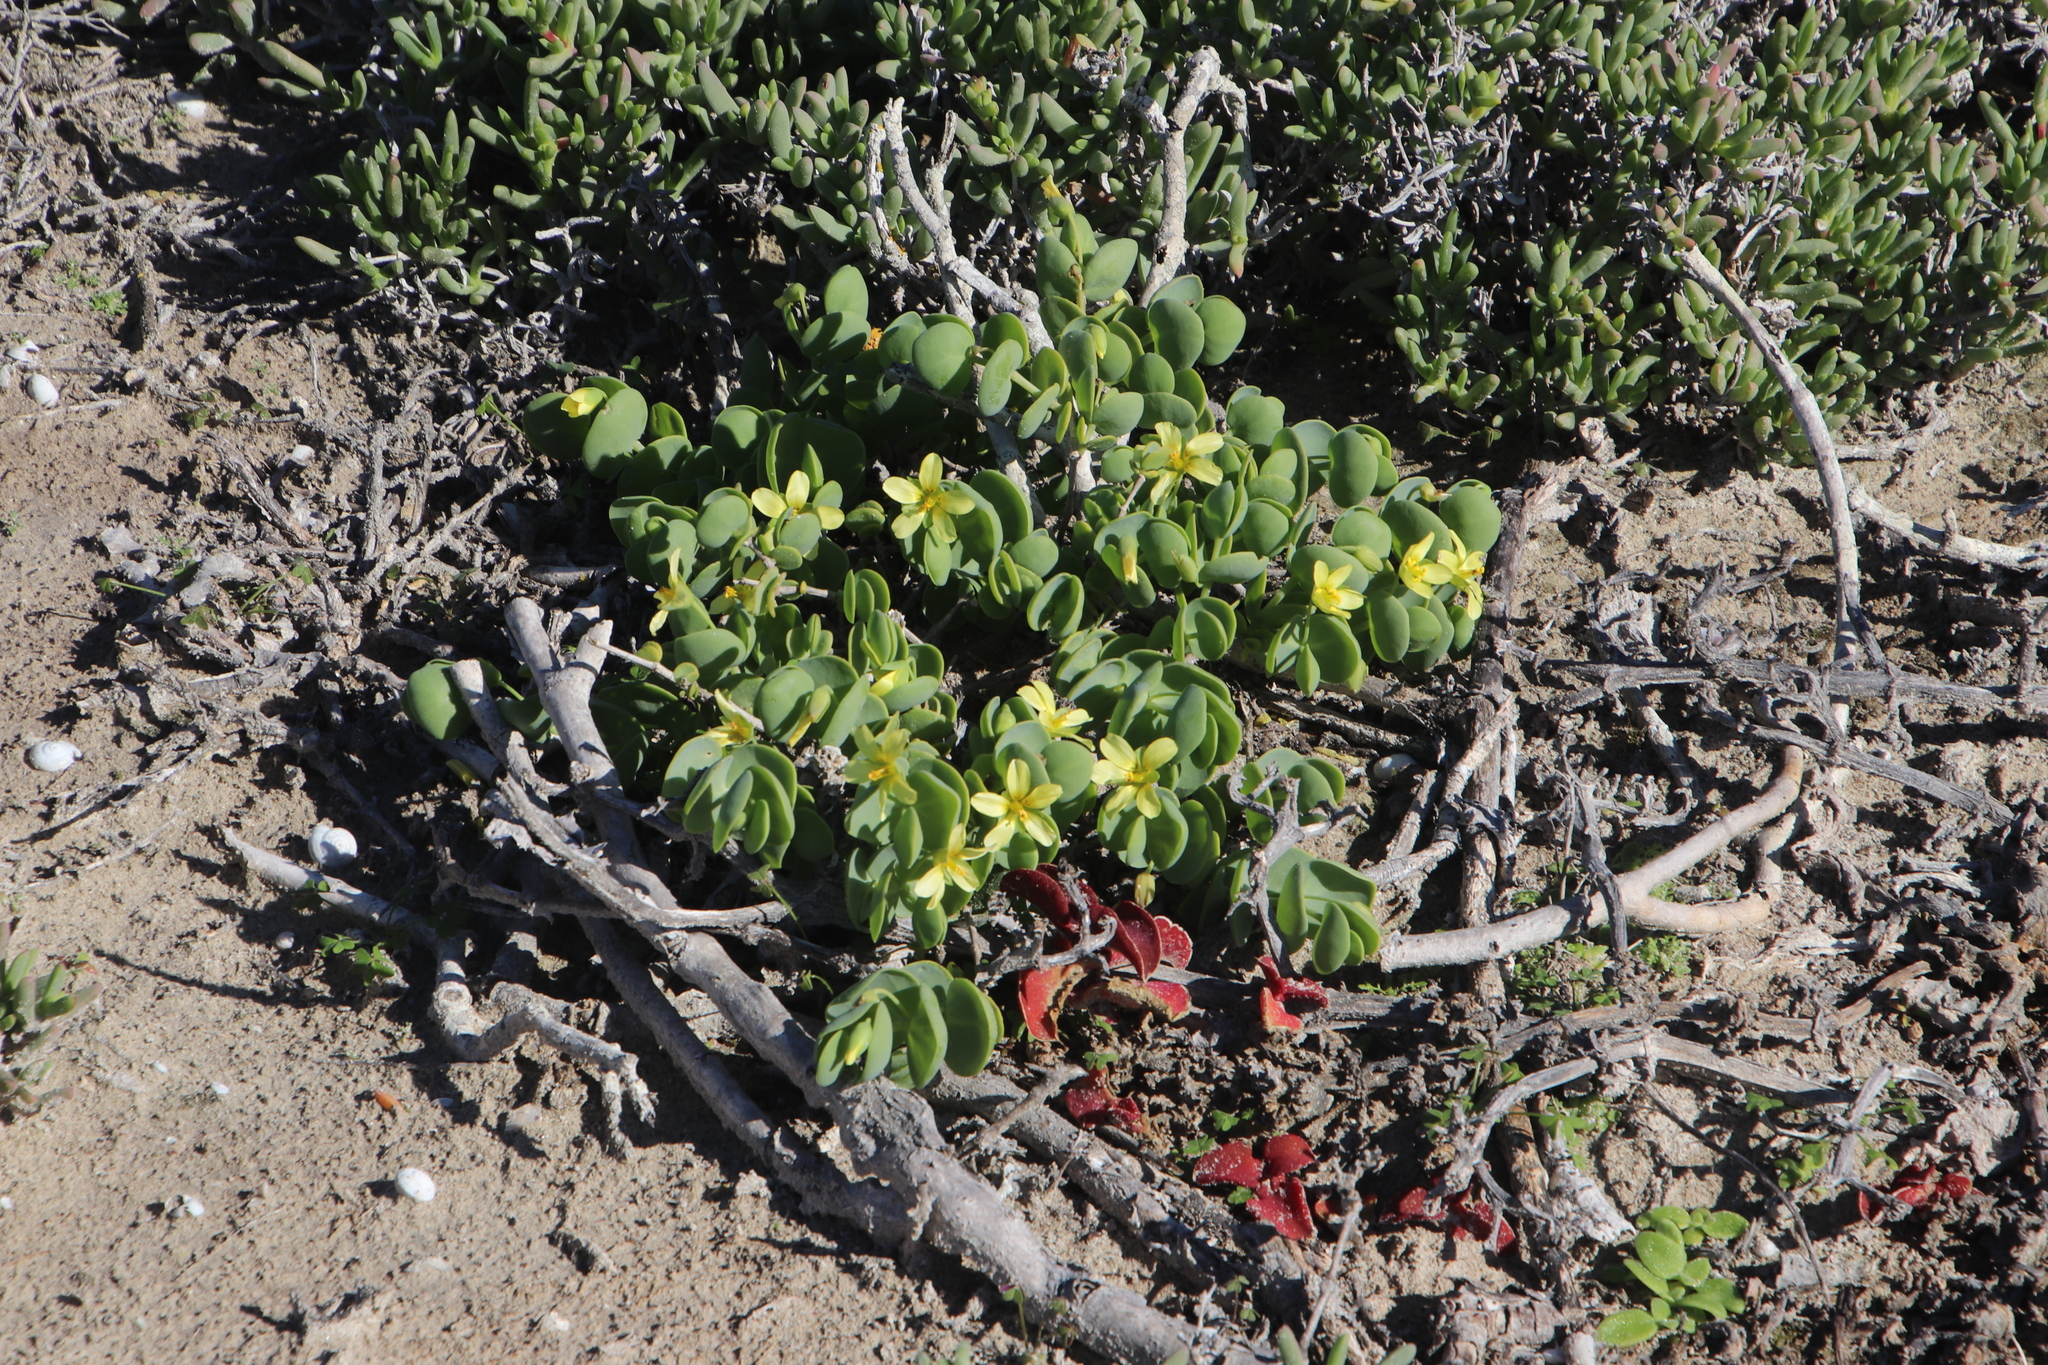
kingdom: Plantae
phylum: Tracheophyta
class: Magnoliopsida
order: Zygophyllales
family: Zygophyllaceae
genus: Roepera
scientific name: Roepera cordifolia
